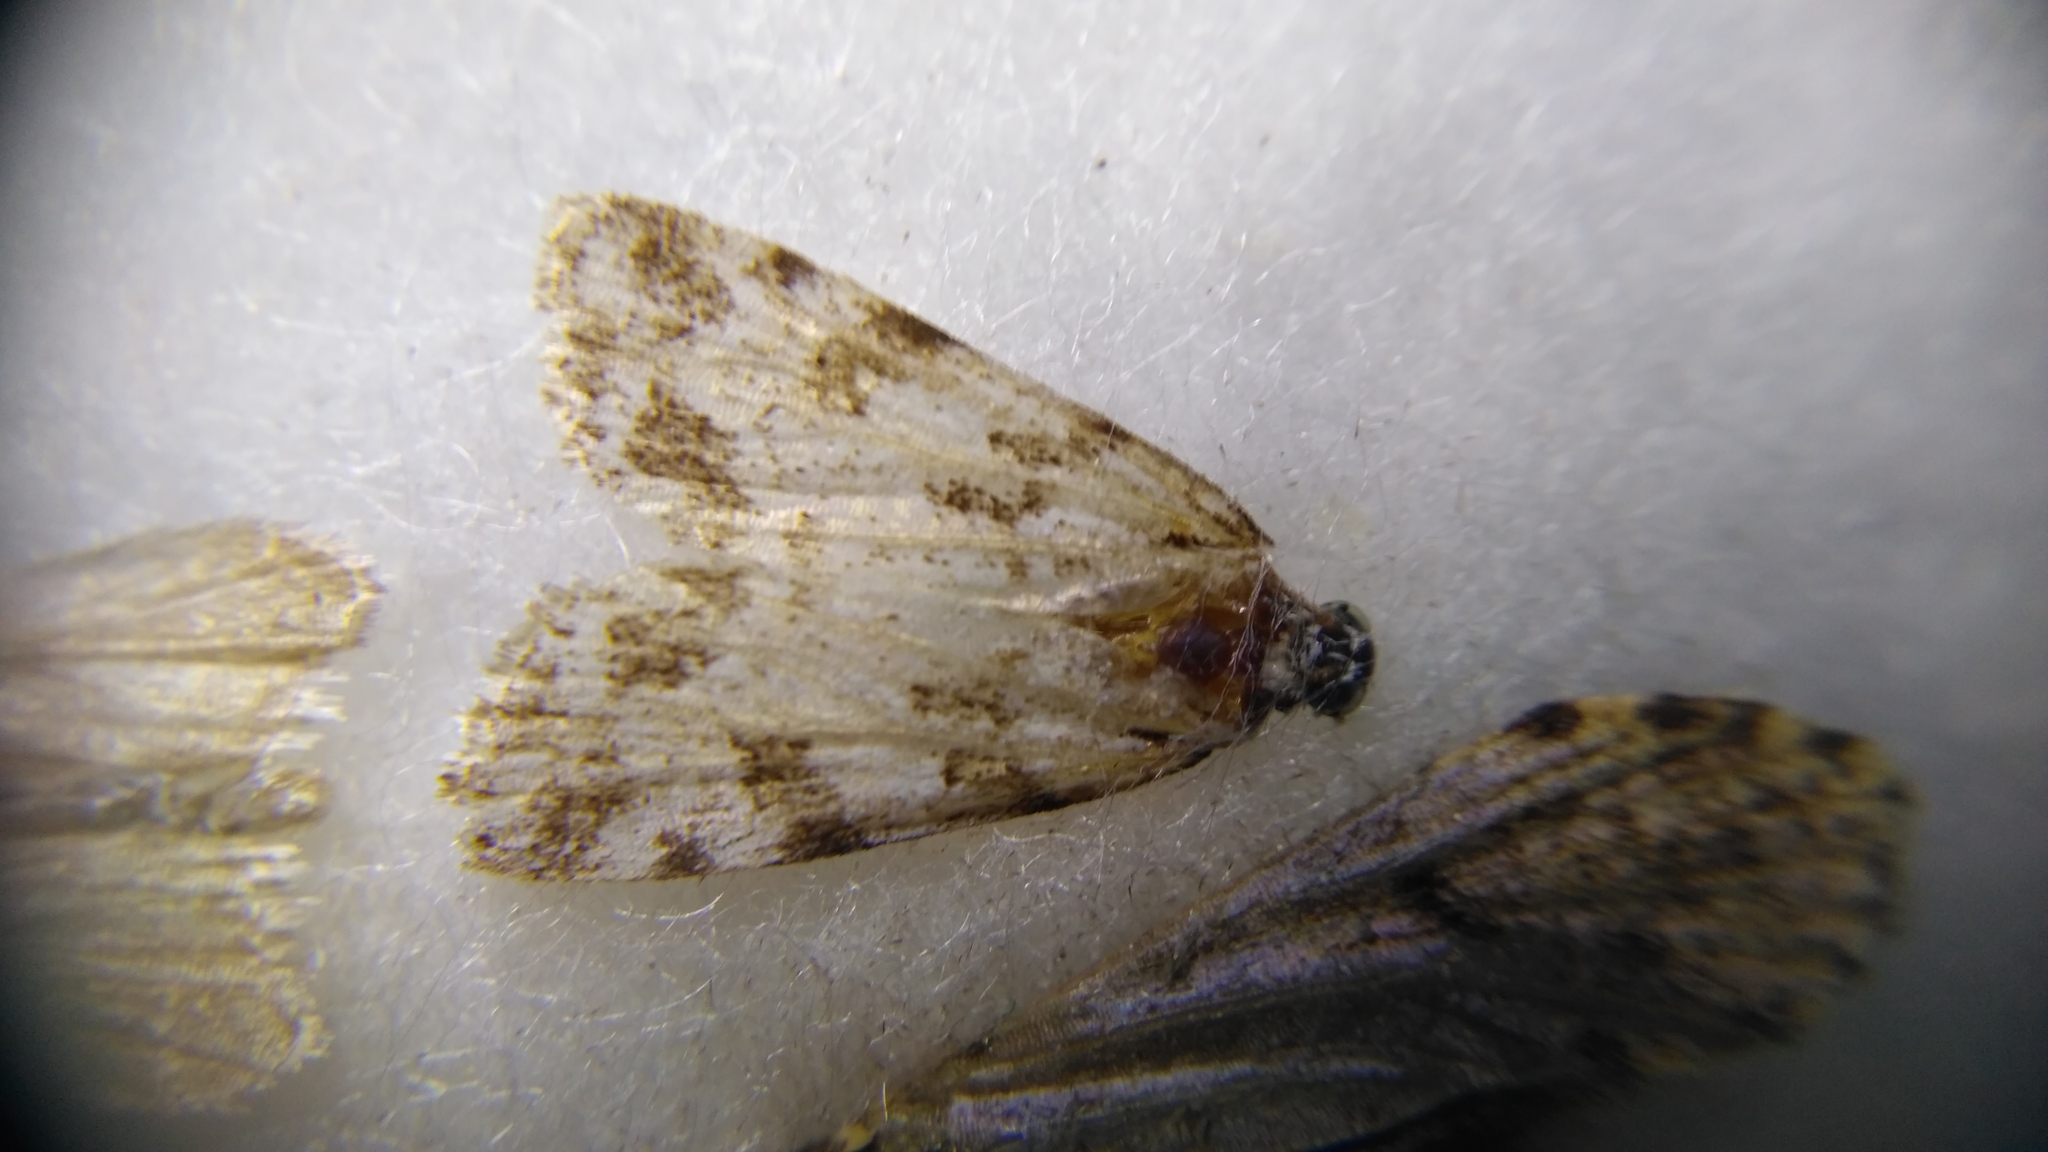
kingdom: Animalia
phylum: Arthropoda
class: Insecta
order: Lepidoptera
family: Crambidae
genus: Scoparia
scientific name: Scoparia ingratella
